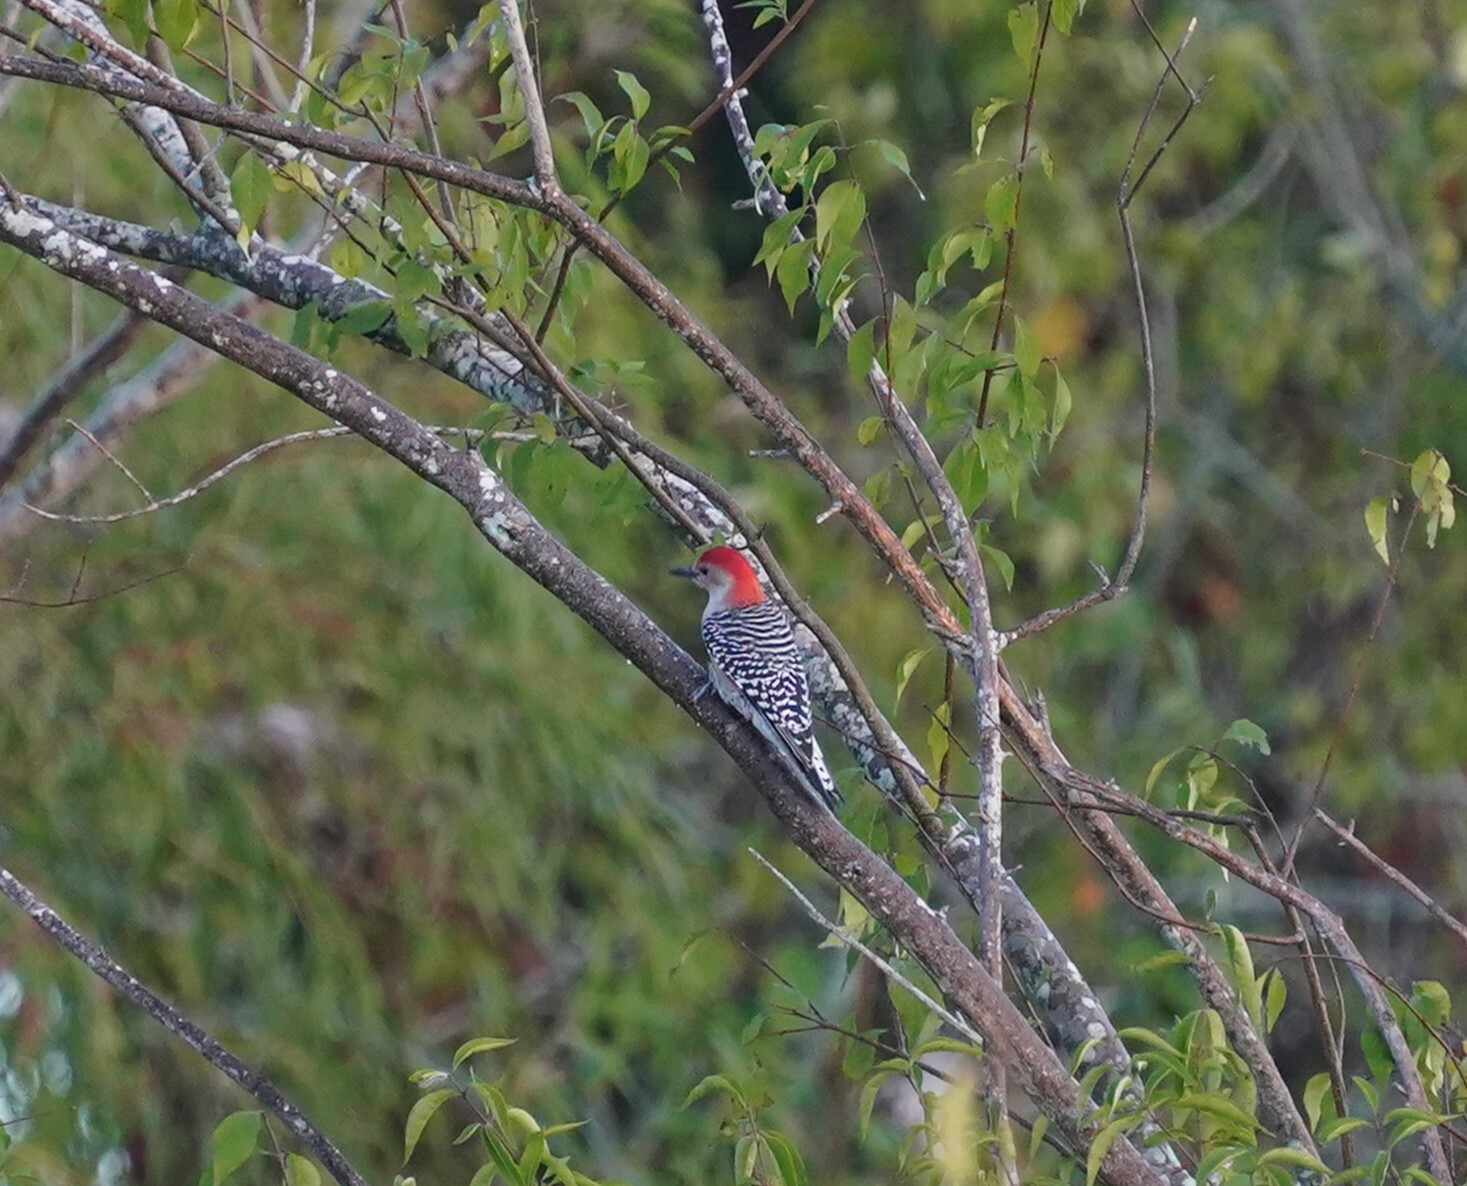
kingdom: Animalia
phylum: Chordata
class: Aves
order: Piciformes
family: Picidae
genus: Melanerpes
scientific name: Melanerpes carolinus
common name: Red-bellied woodpecker
